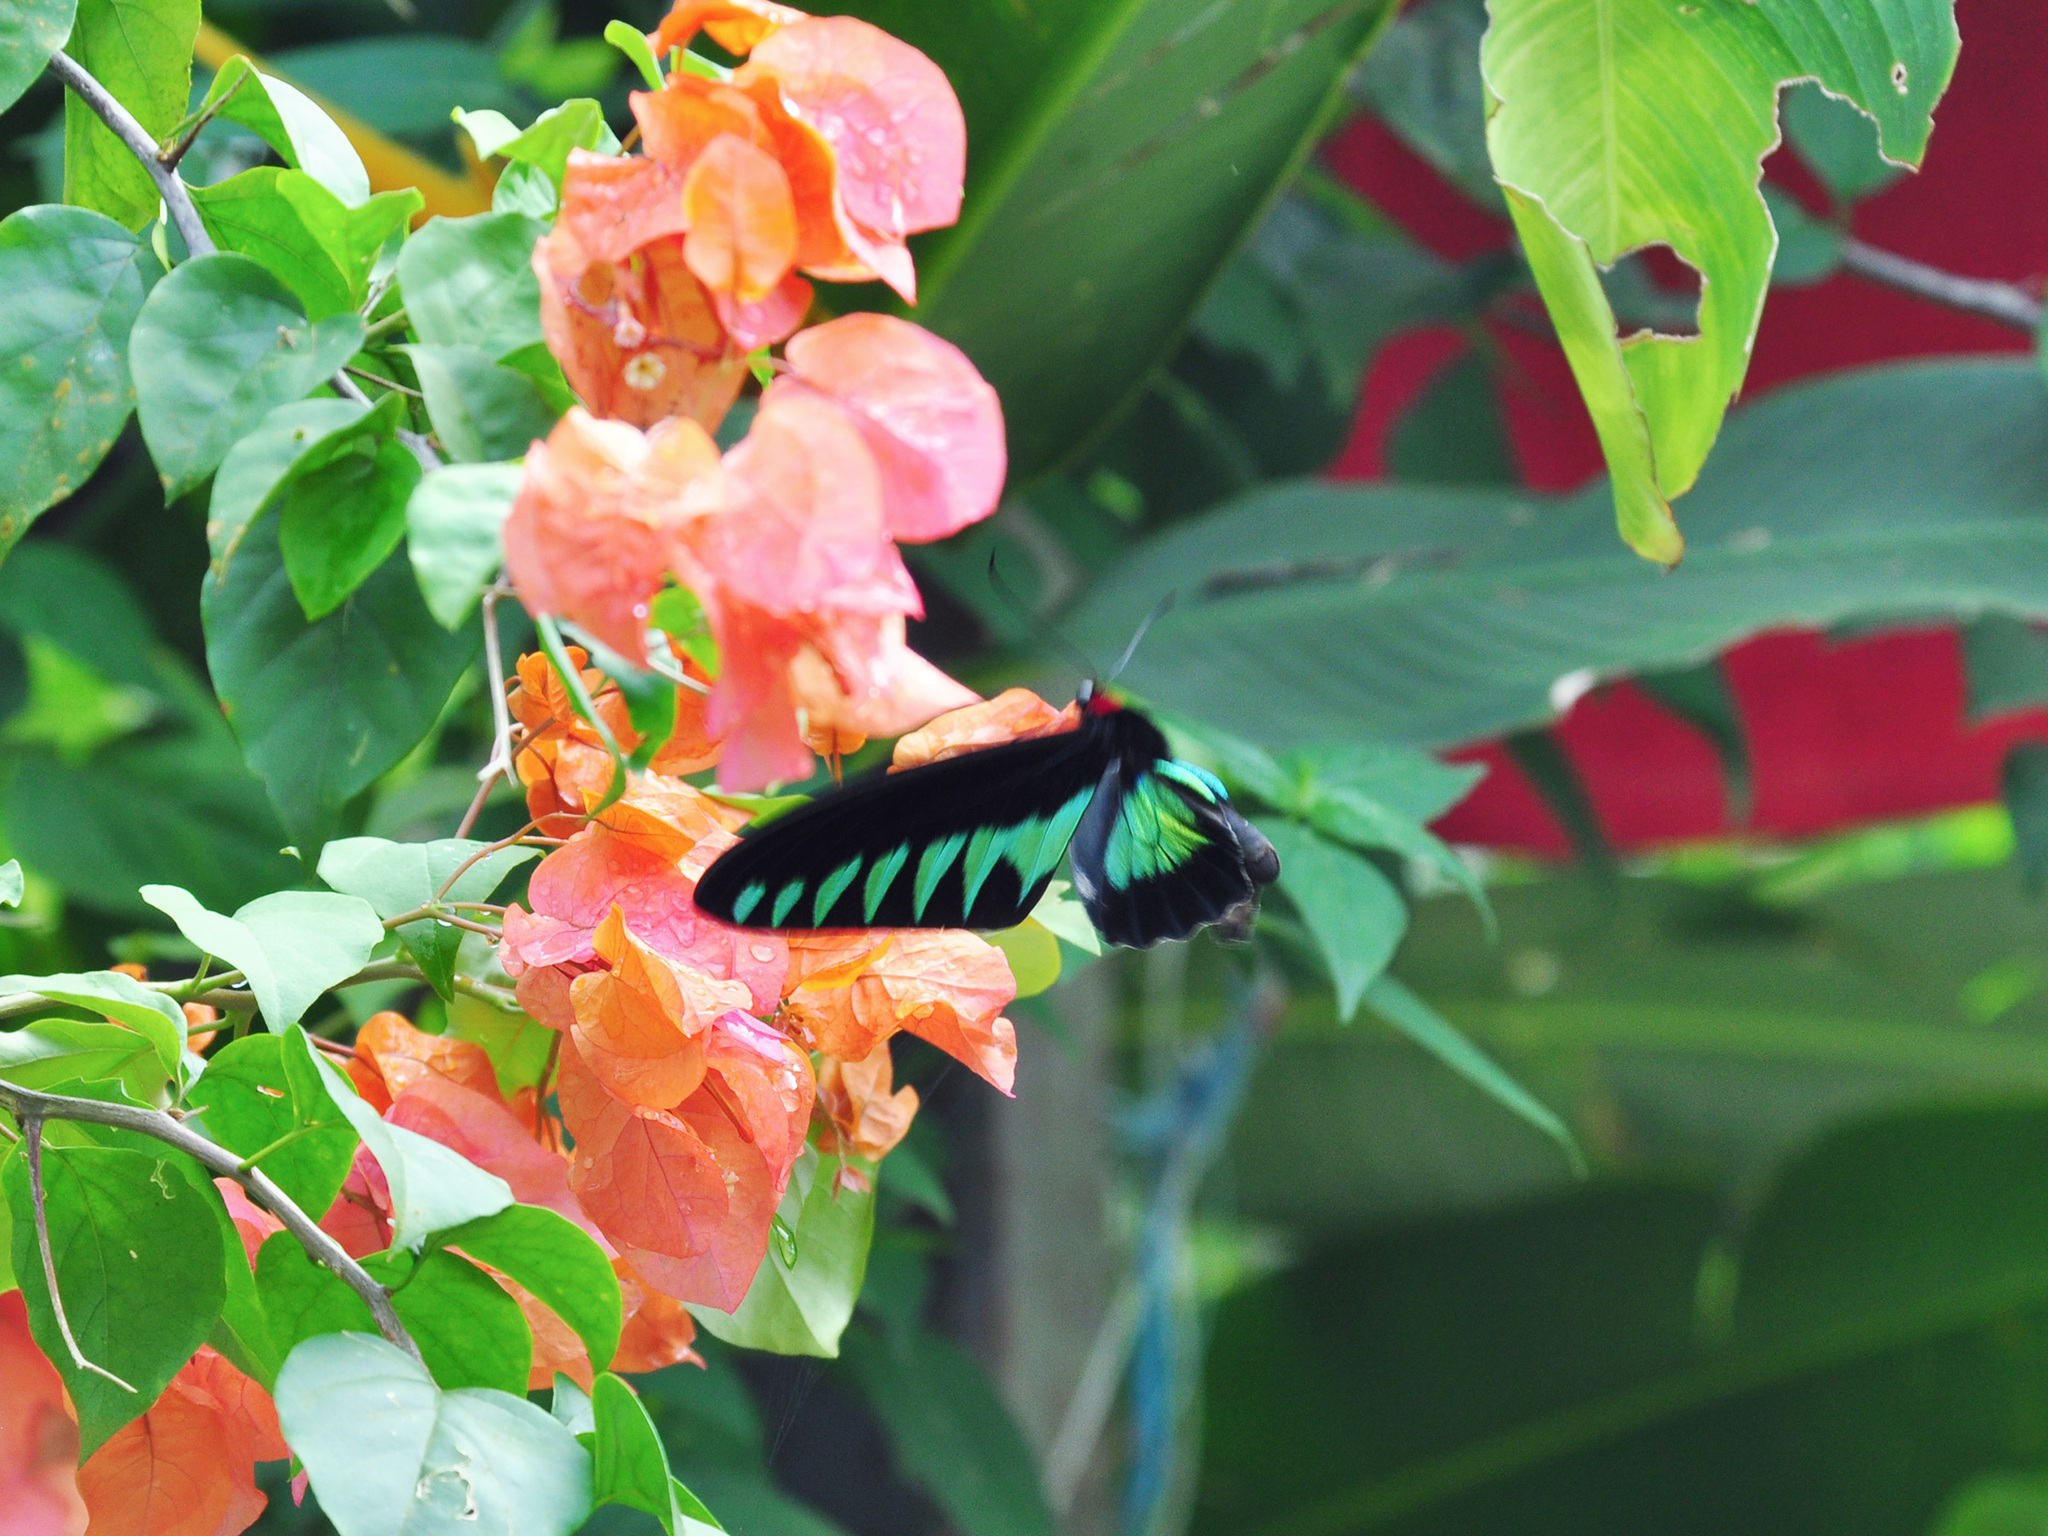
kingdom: Animalia
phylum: Arthropoda
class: Insecta
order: Lepidoptera
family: Papilionidae
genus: Trogonoptera
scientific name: Trogonoptera brookiana
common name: Raja brooke's birdwing
